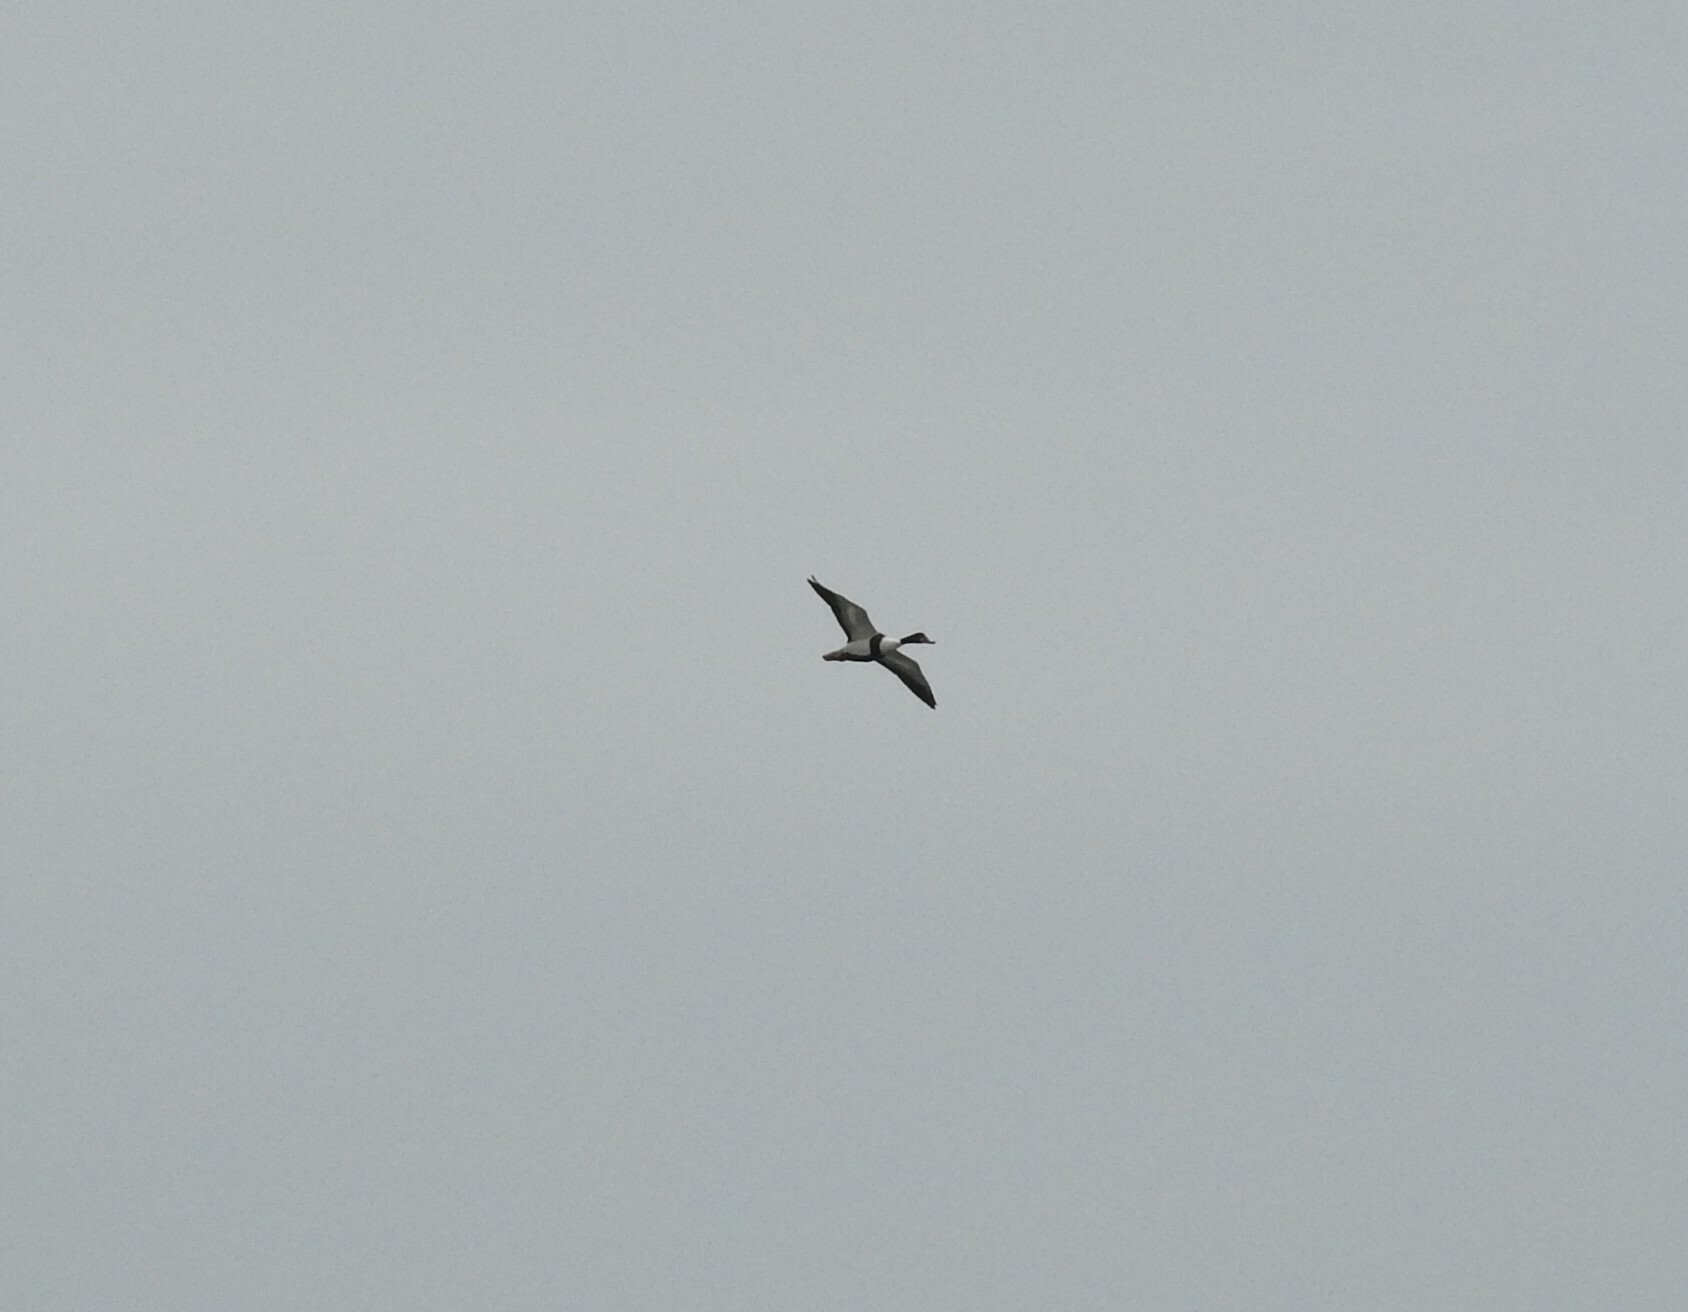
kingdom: Animalia
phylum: Chordata
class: Aves
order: Anseriformes
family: Anatidae
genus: Tadorna
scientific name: Tadorna tadorna
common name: Common shelduck
